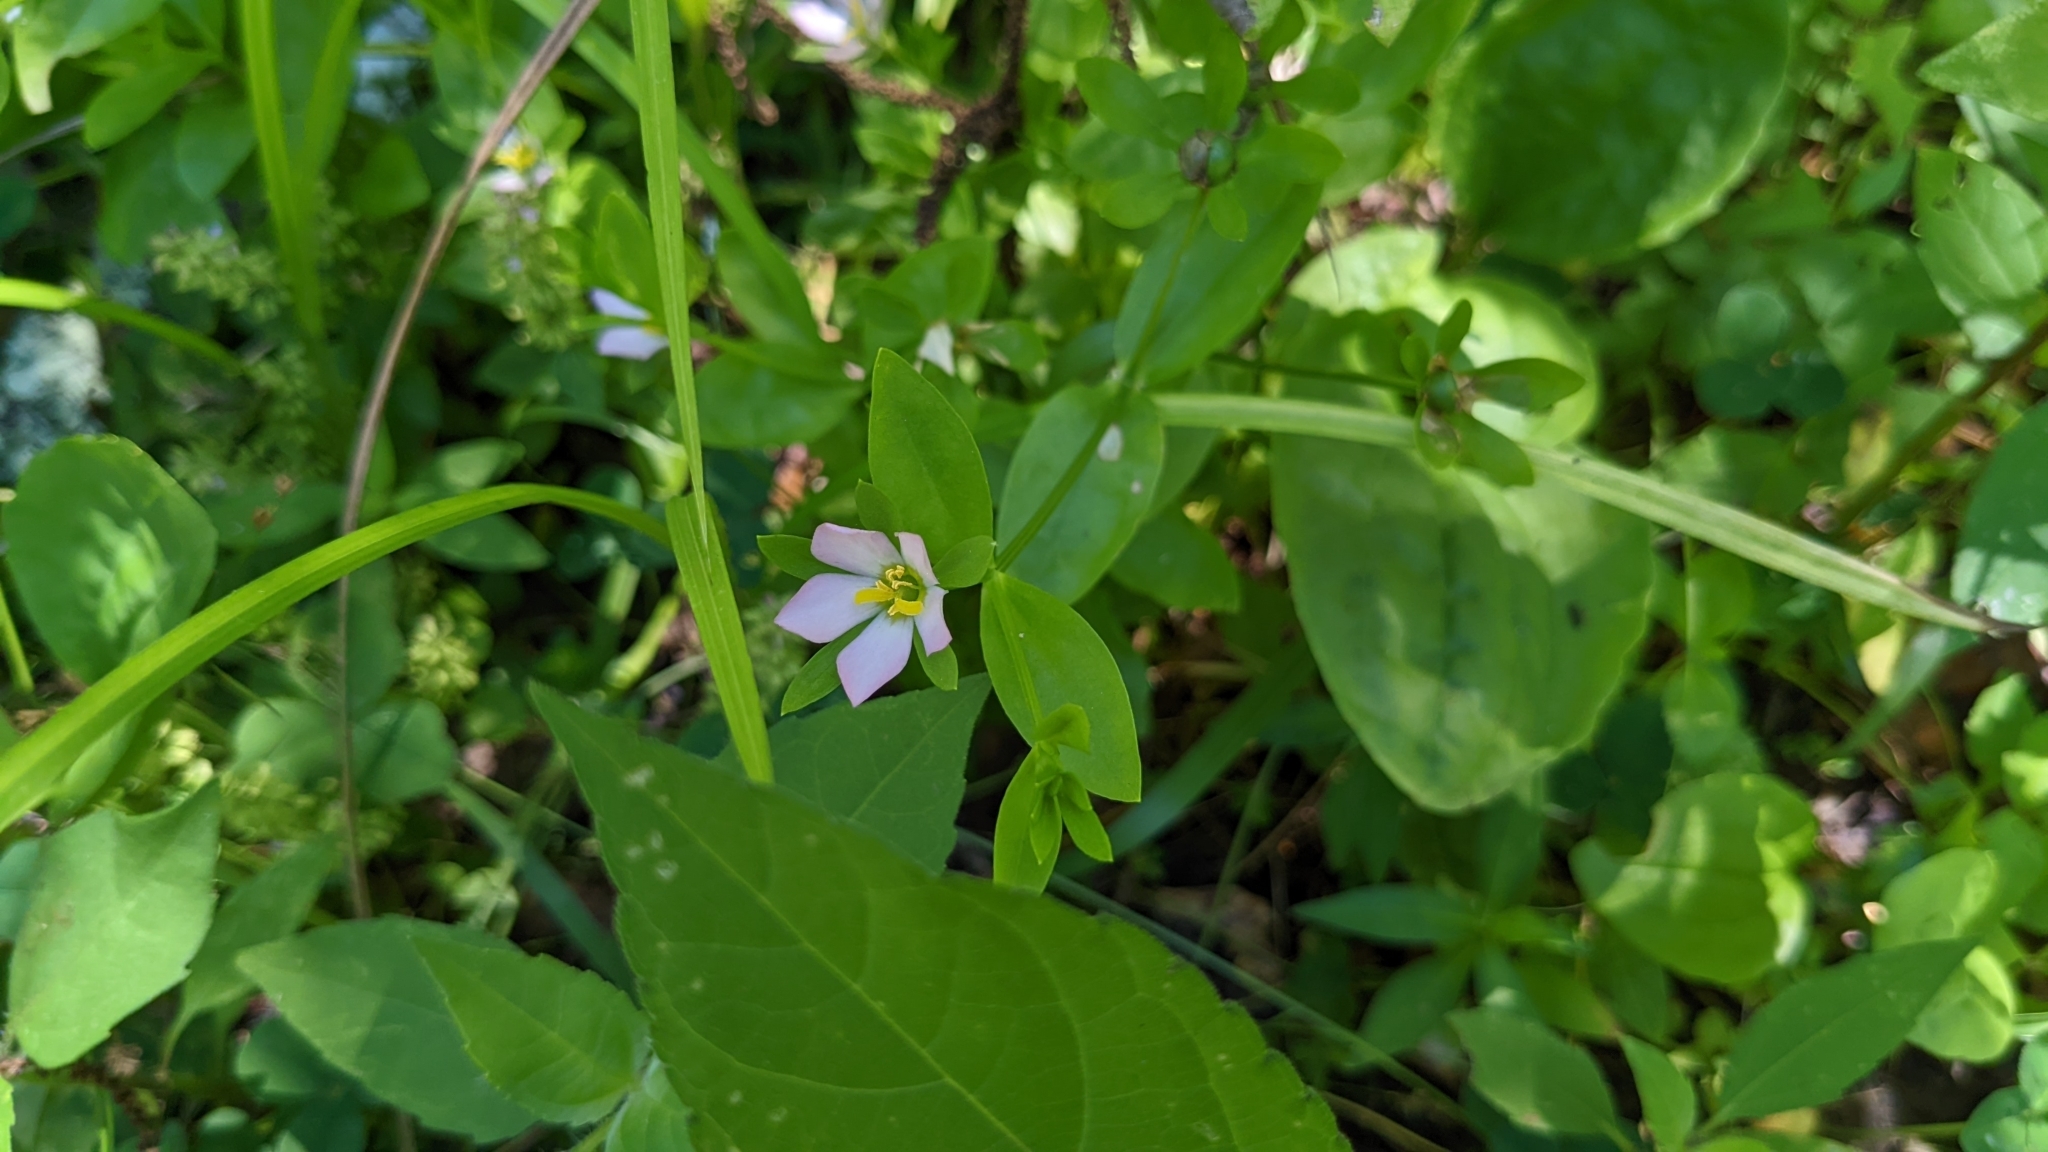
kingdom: Plantae
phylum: Tracheophyta
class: Magnoliopsida
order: Gentianales
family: Gentianaceae
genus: Sabatia
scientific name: Sabatia calycina
